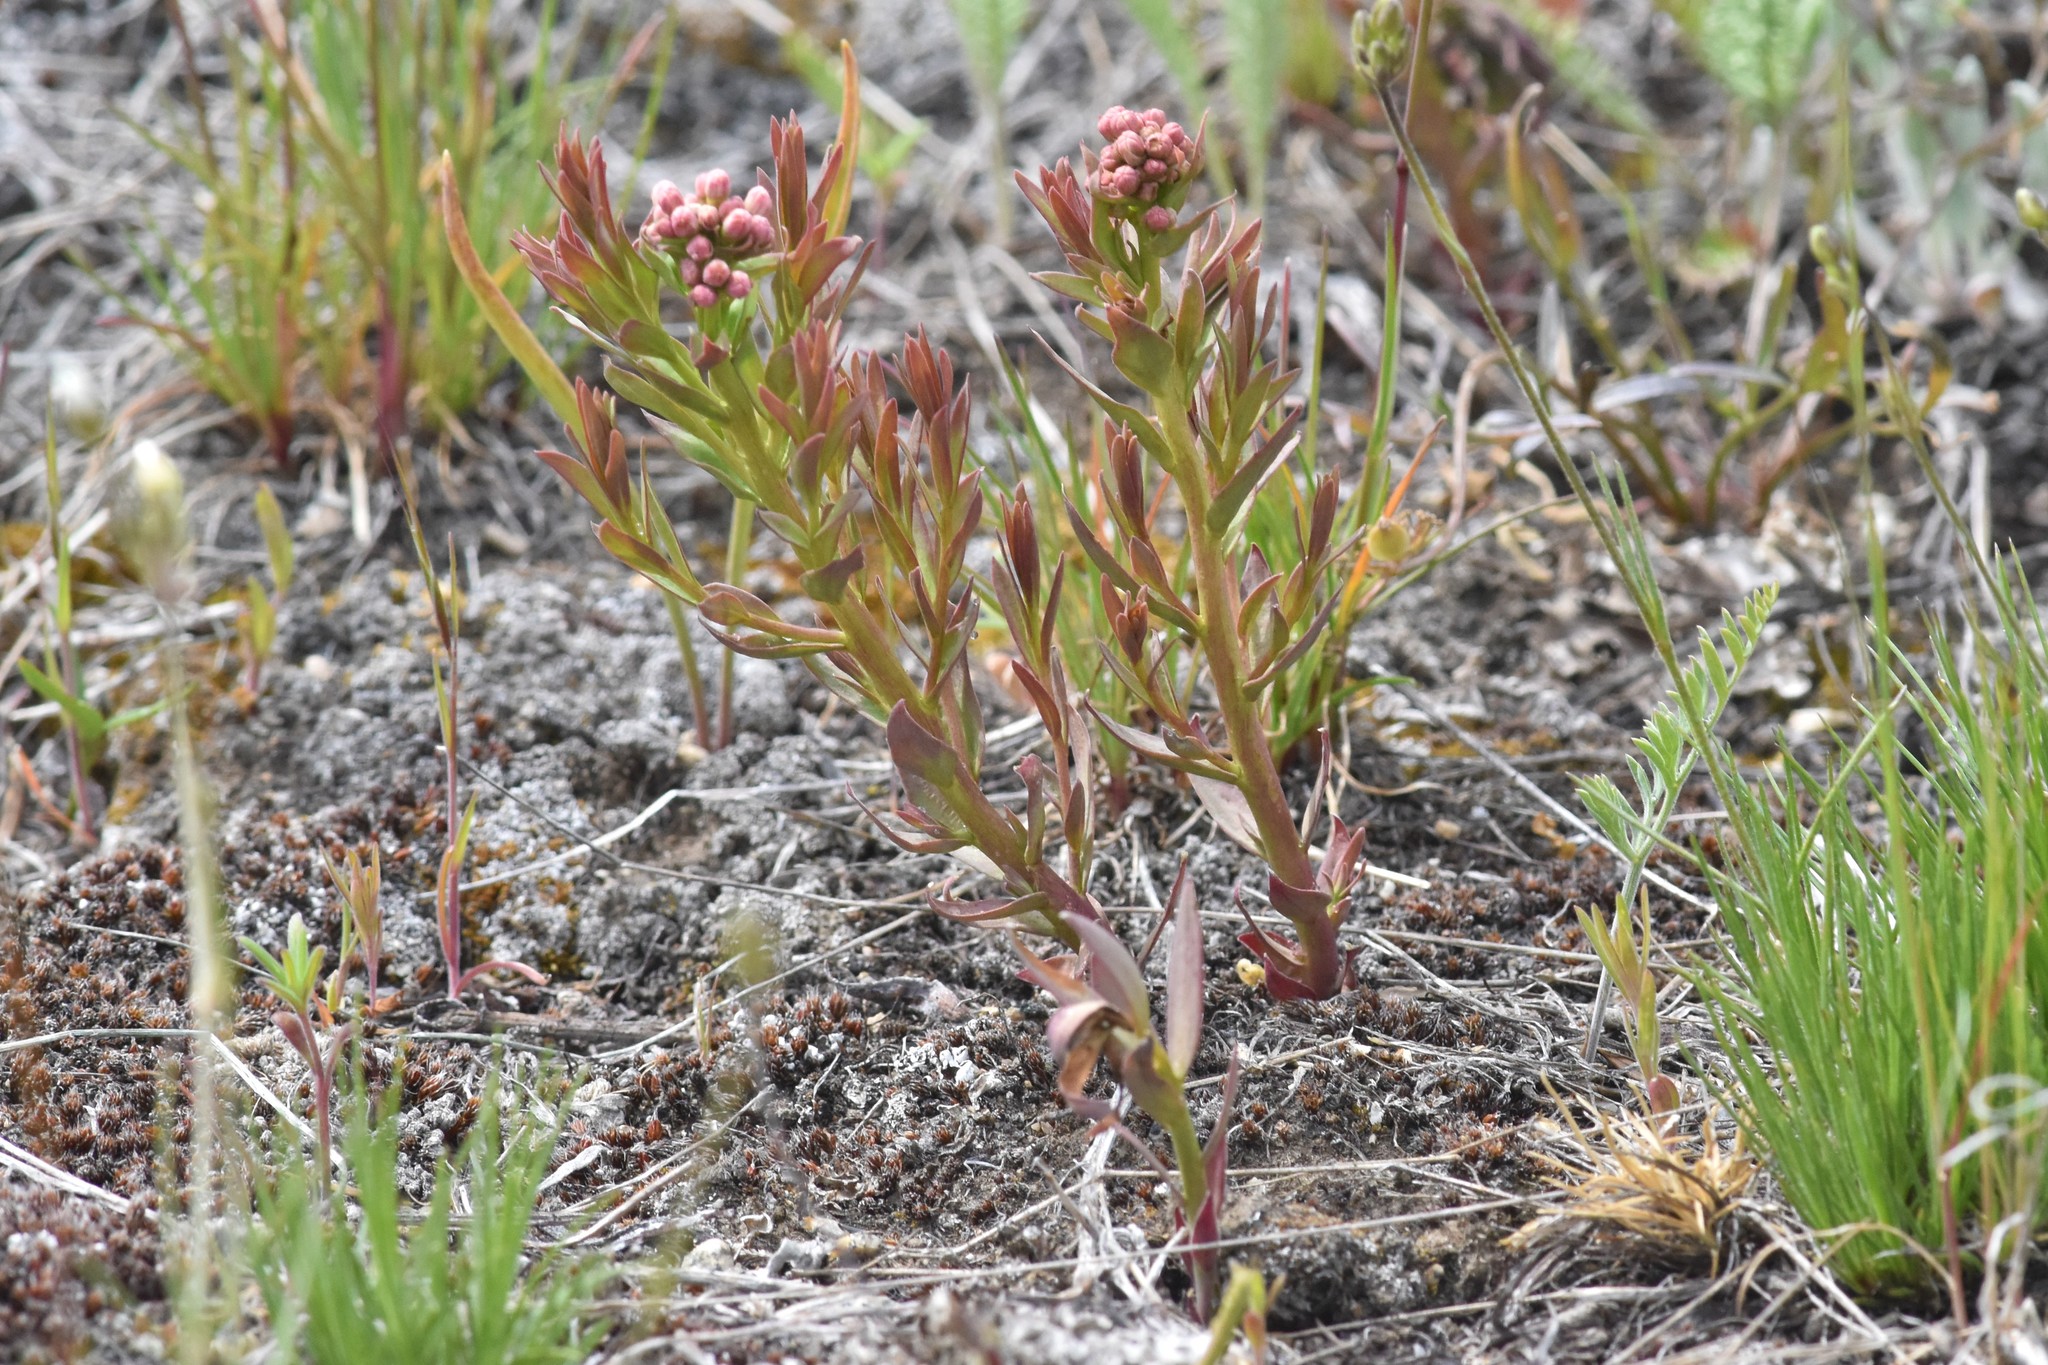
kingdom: Plantae
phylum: Tracheophyta
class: Magnoliopsida
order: Santalales
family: Comandraceae
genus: Comandra
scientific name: Comandra umbellata
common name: Bastard toadflax
